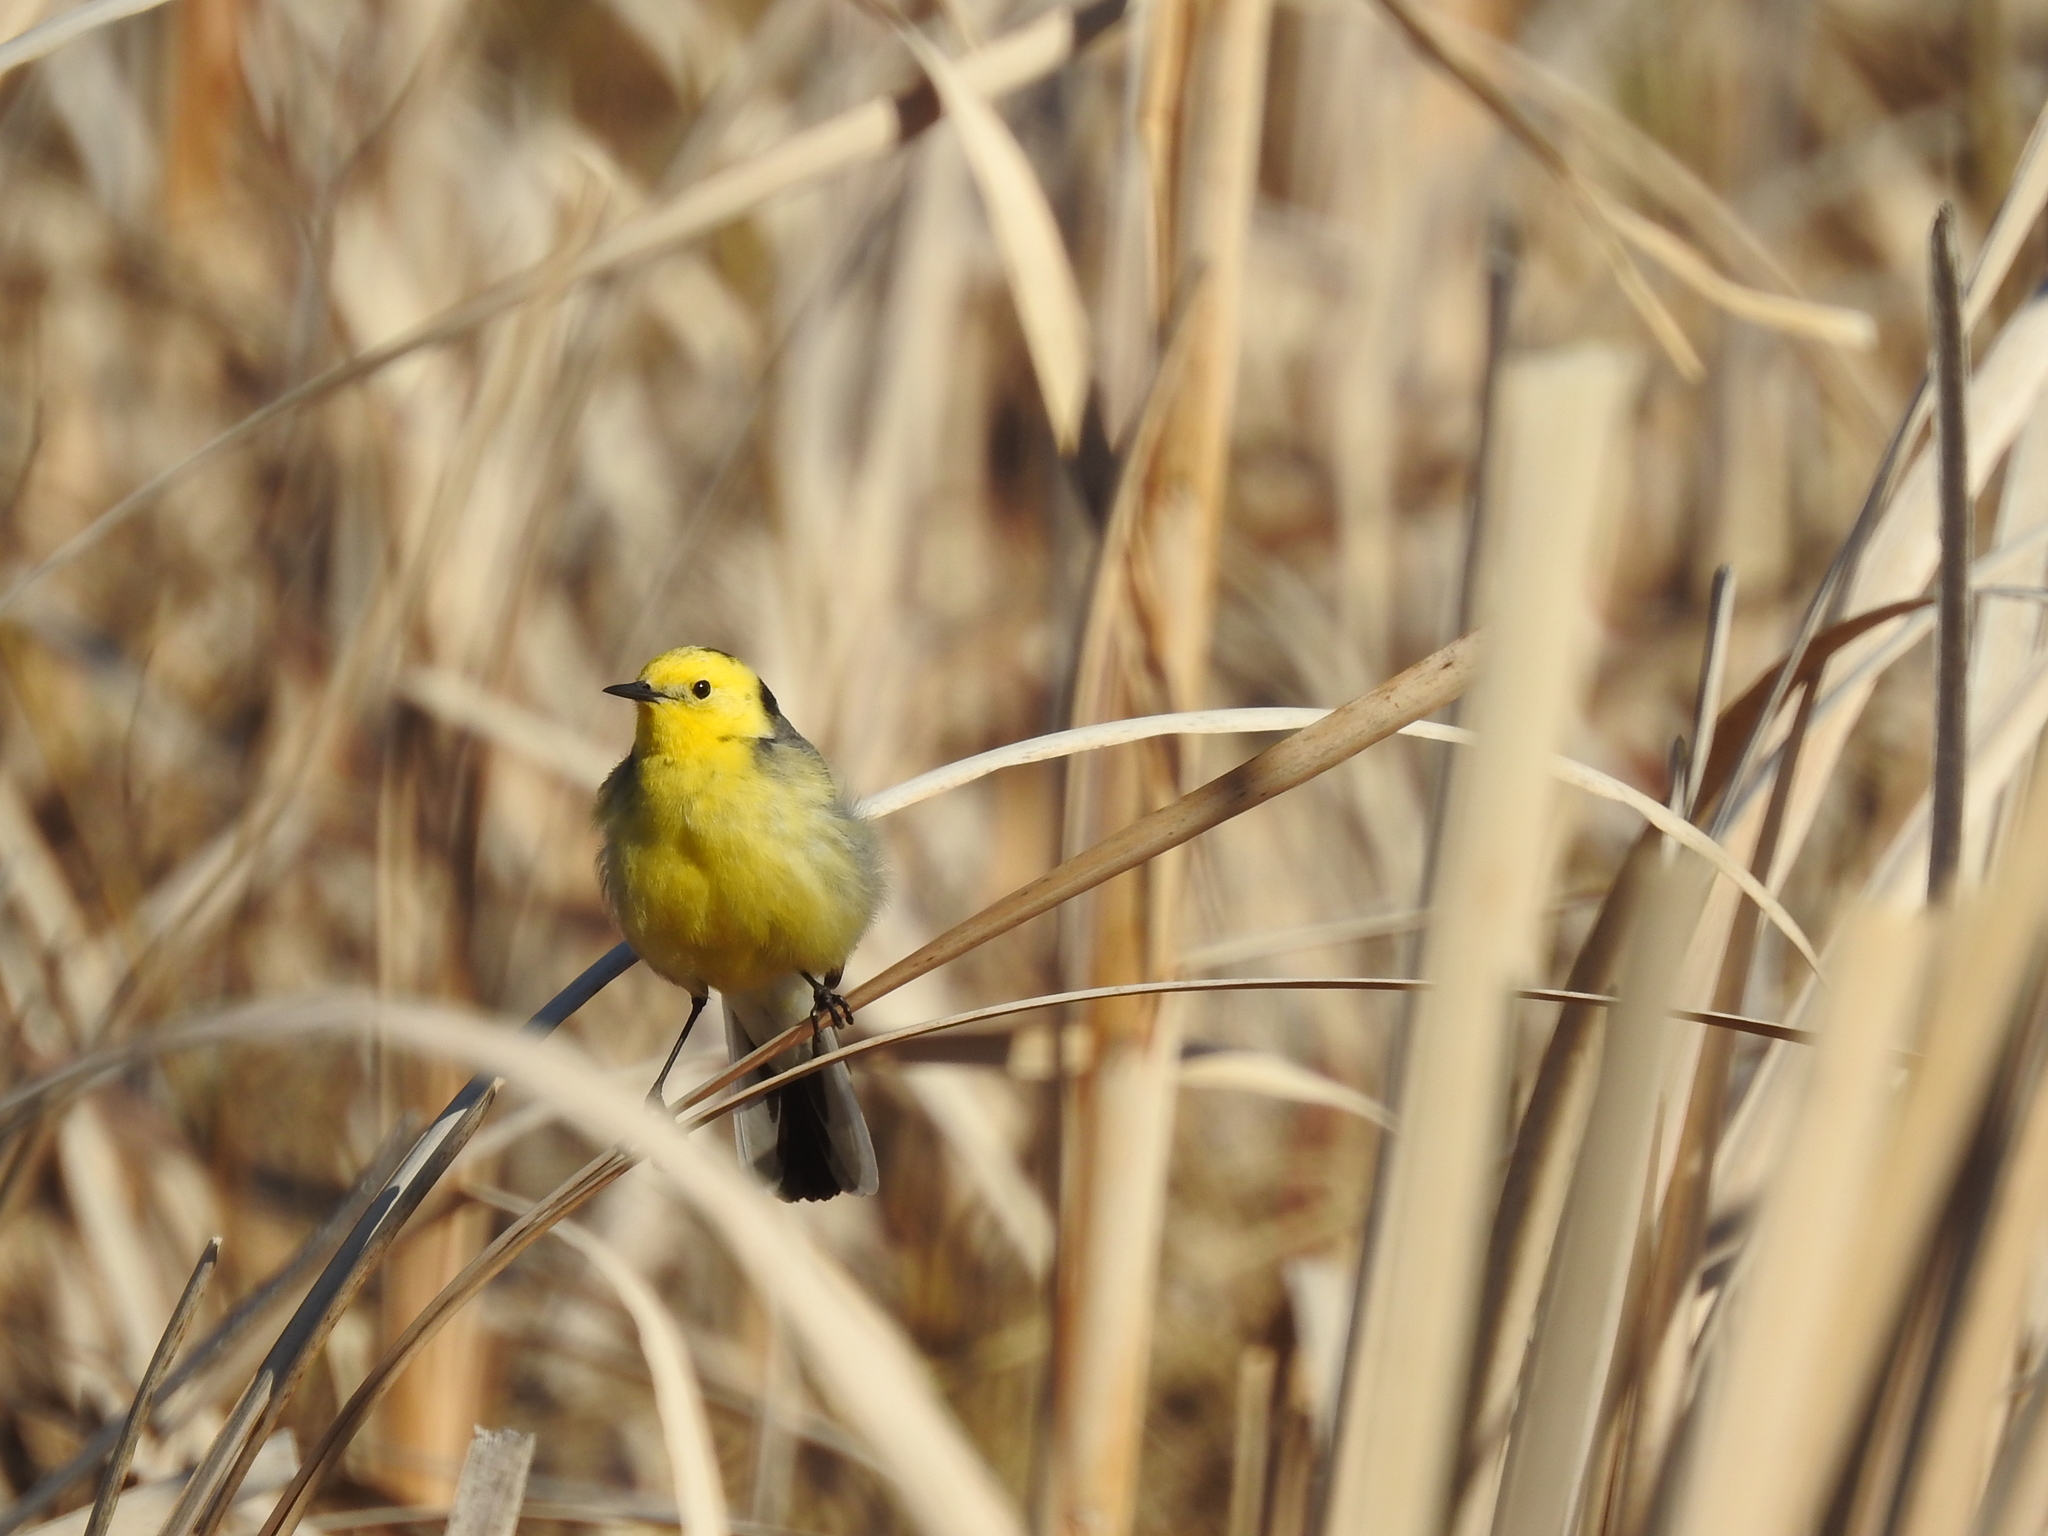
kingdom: Animalia
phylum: Chordata
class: Aves
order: Passeriformes
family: Motacillidae
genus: Motacilla
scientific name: Motacilla citreola
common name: Citrine wagtail
